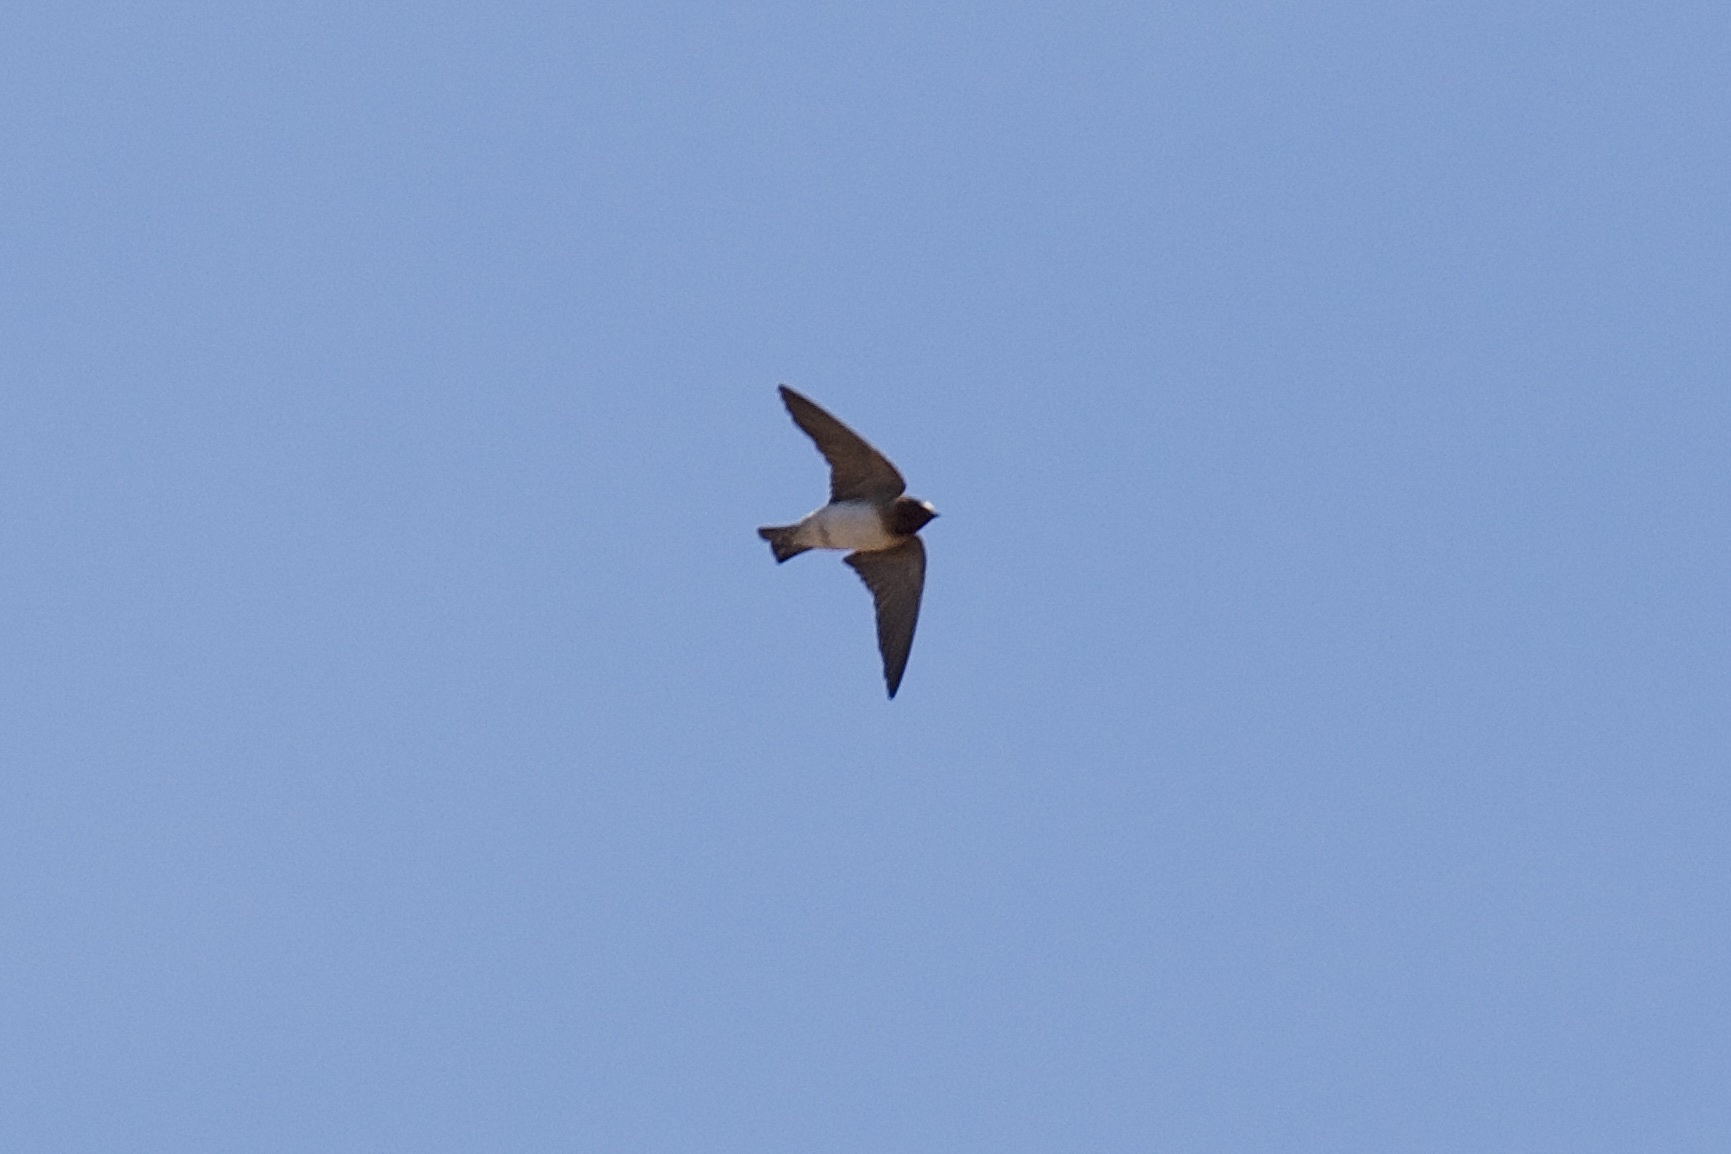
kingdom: Animalia
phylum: Chordata
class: Aves
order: Passeriformes
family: Hirundinidae
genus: Petrochelidon
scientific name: Petrochelidon pyrrhonota
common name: American cliff swallow
